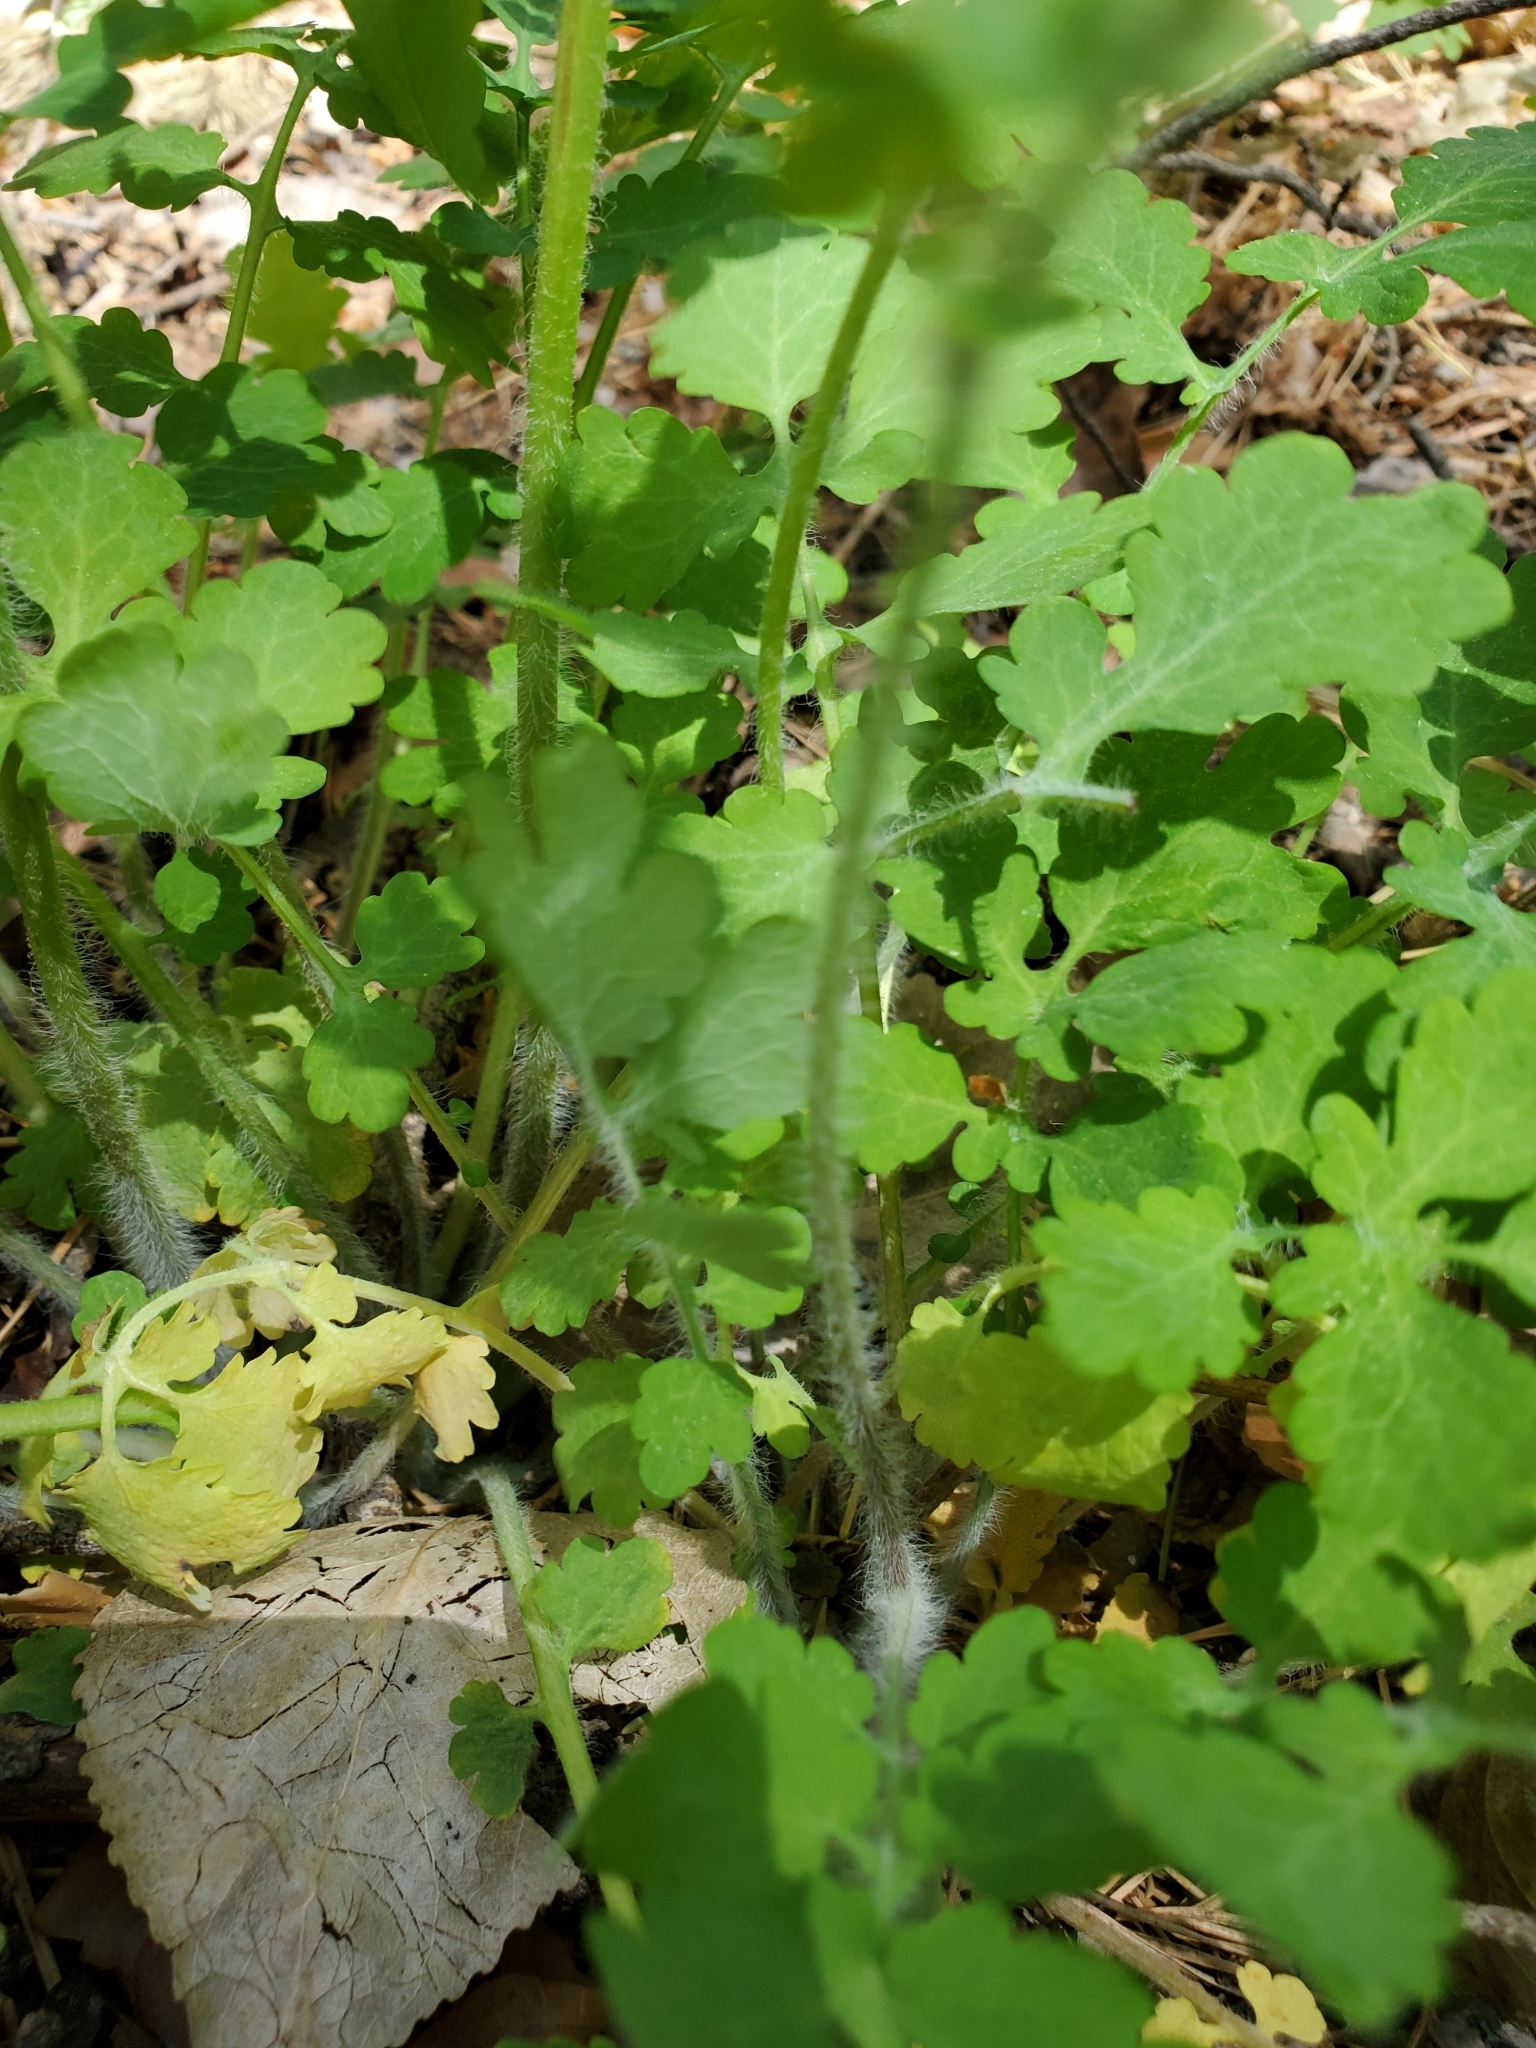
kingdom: Plantae
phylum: Tracheophyta
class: Magnoliopsida
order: Ranunculales
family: Papaveraceae
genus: Chelidonium
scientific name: Chelidonium majus
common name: Greater celandine
